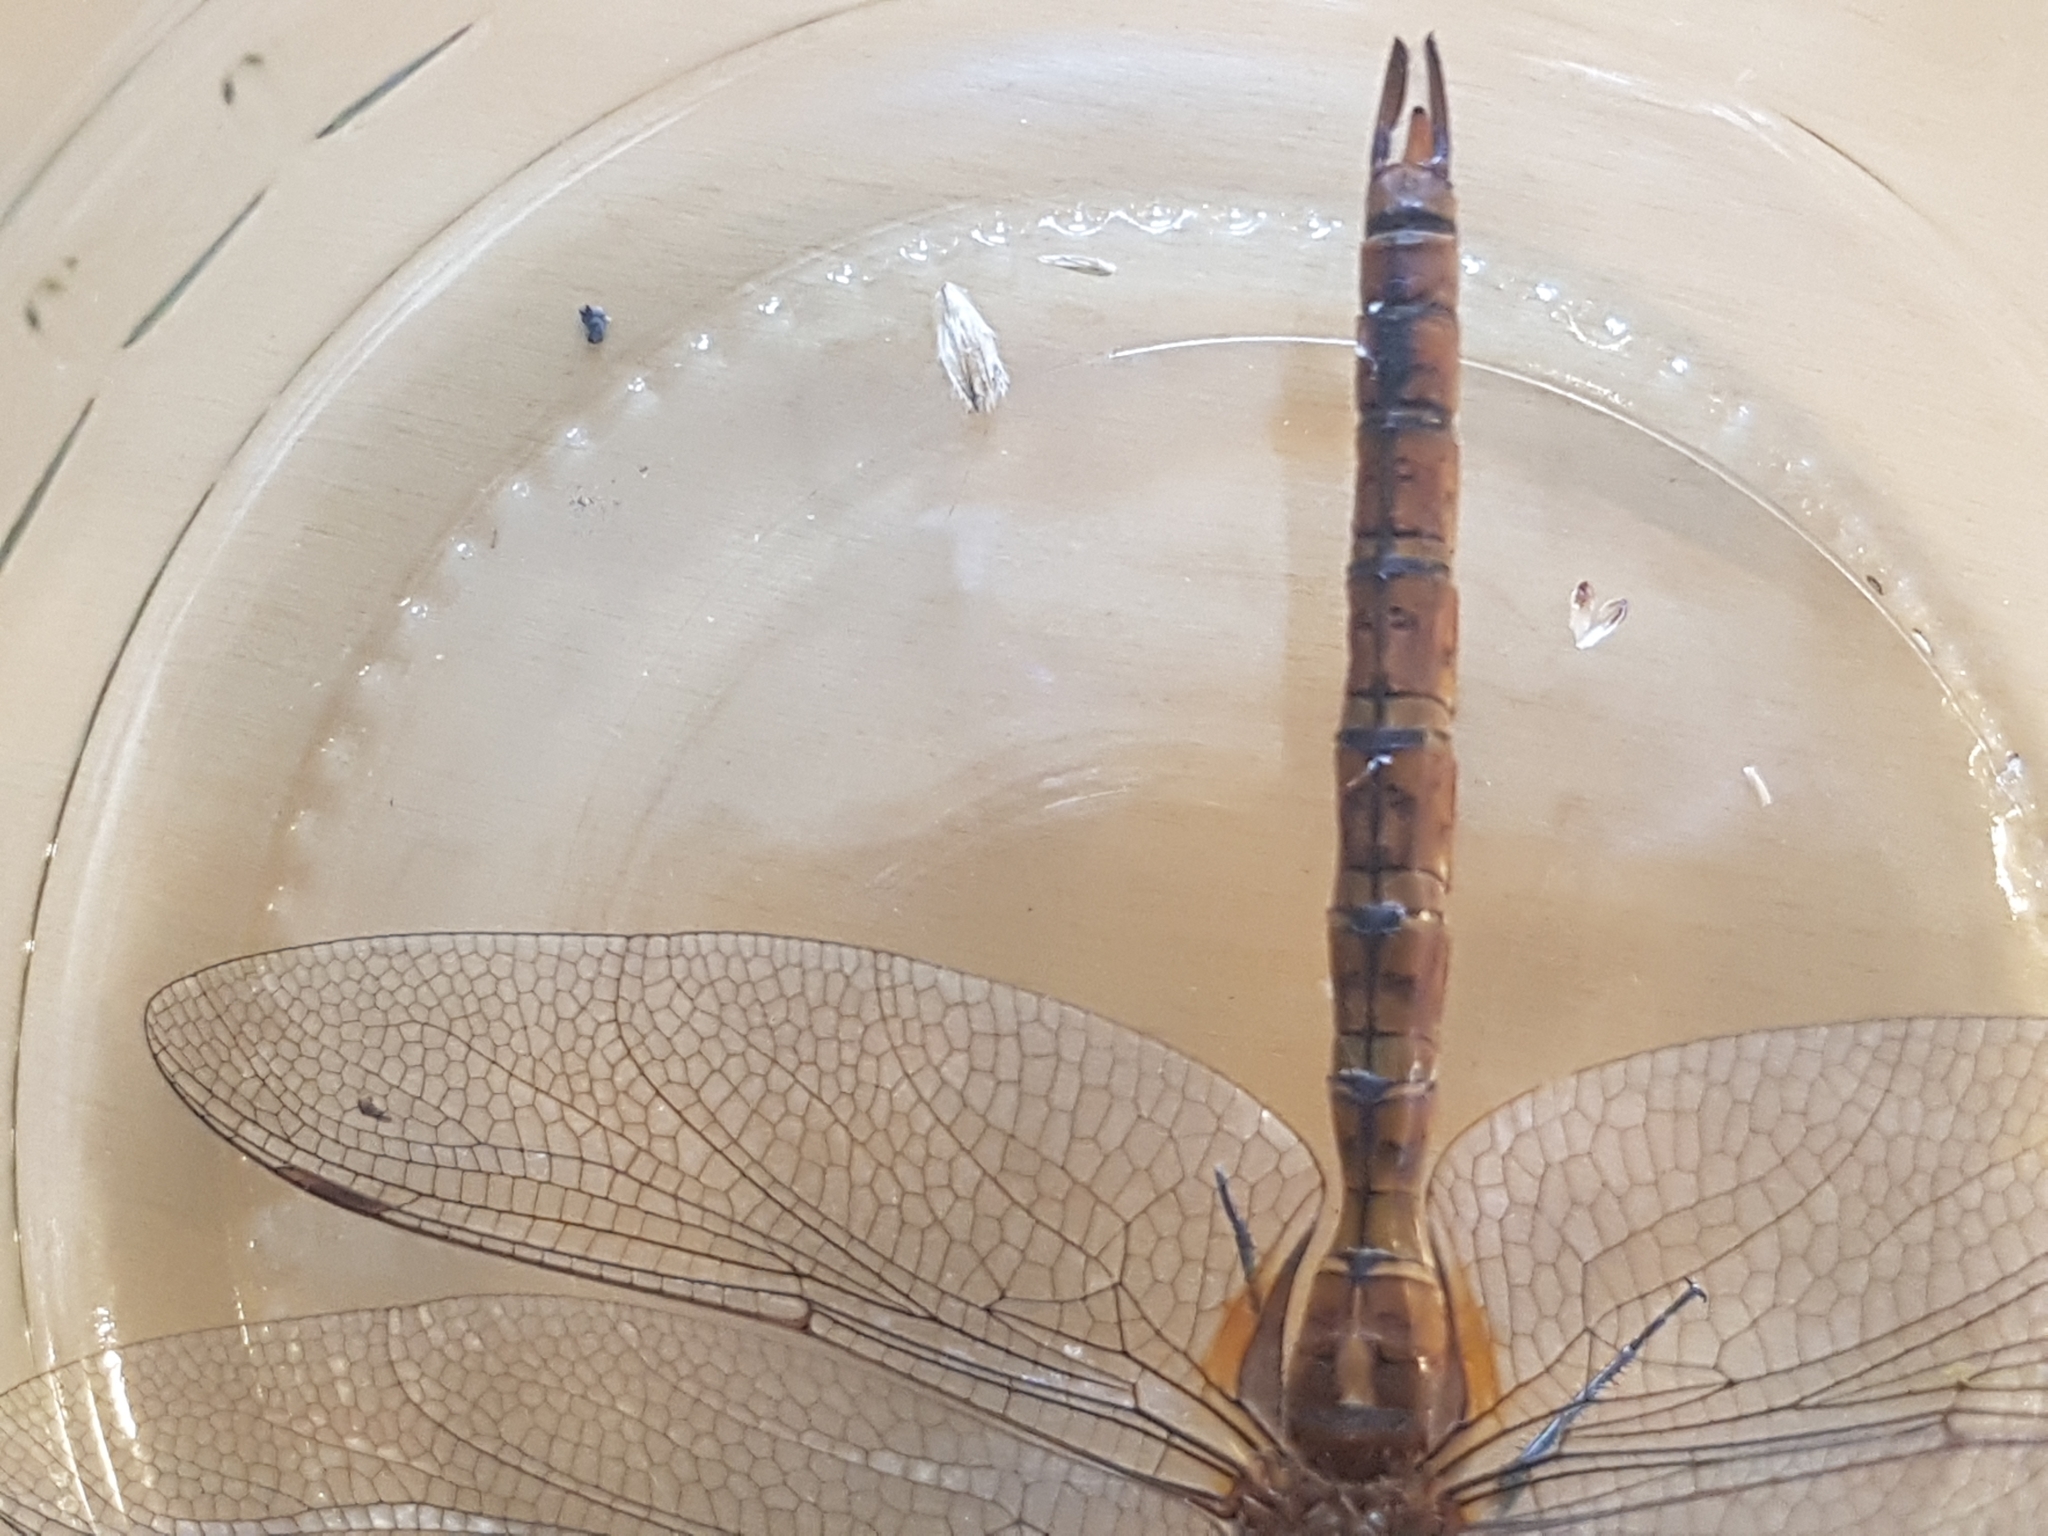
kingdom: Animalia
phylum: Arthropoda
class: Insecta
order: Odonata
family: Aeshnidae
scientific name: Aeshnidae
